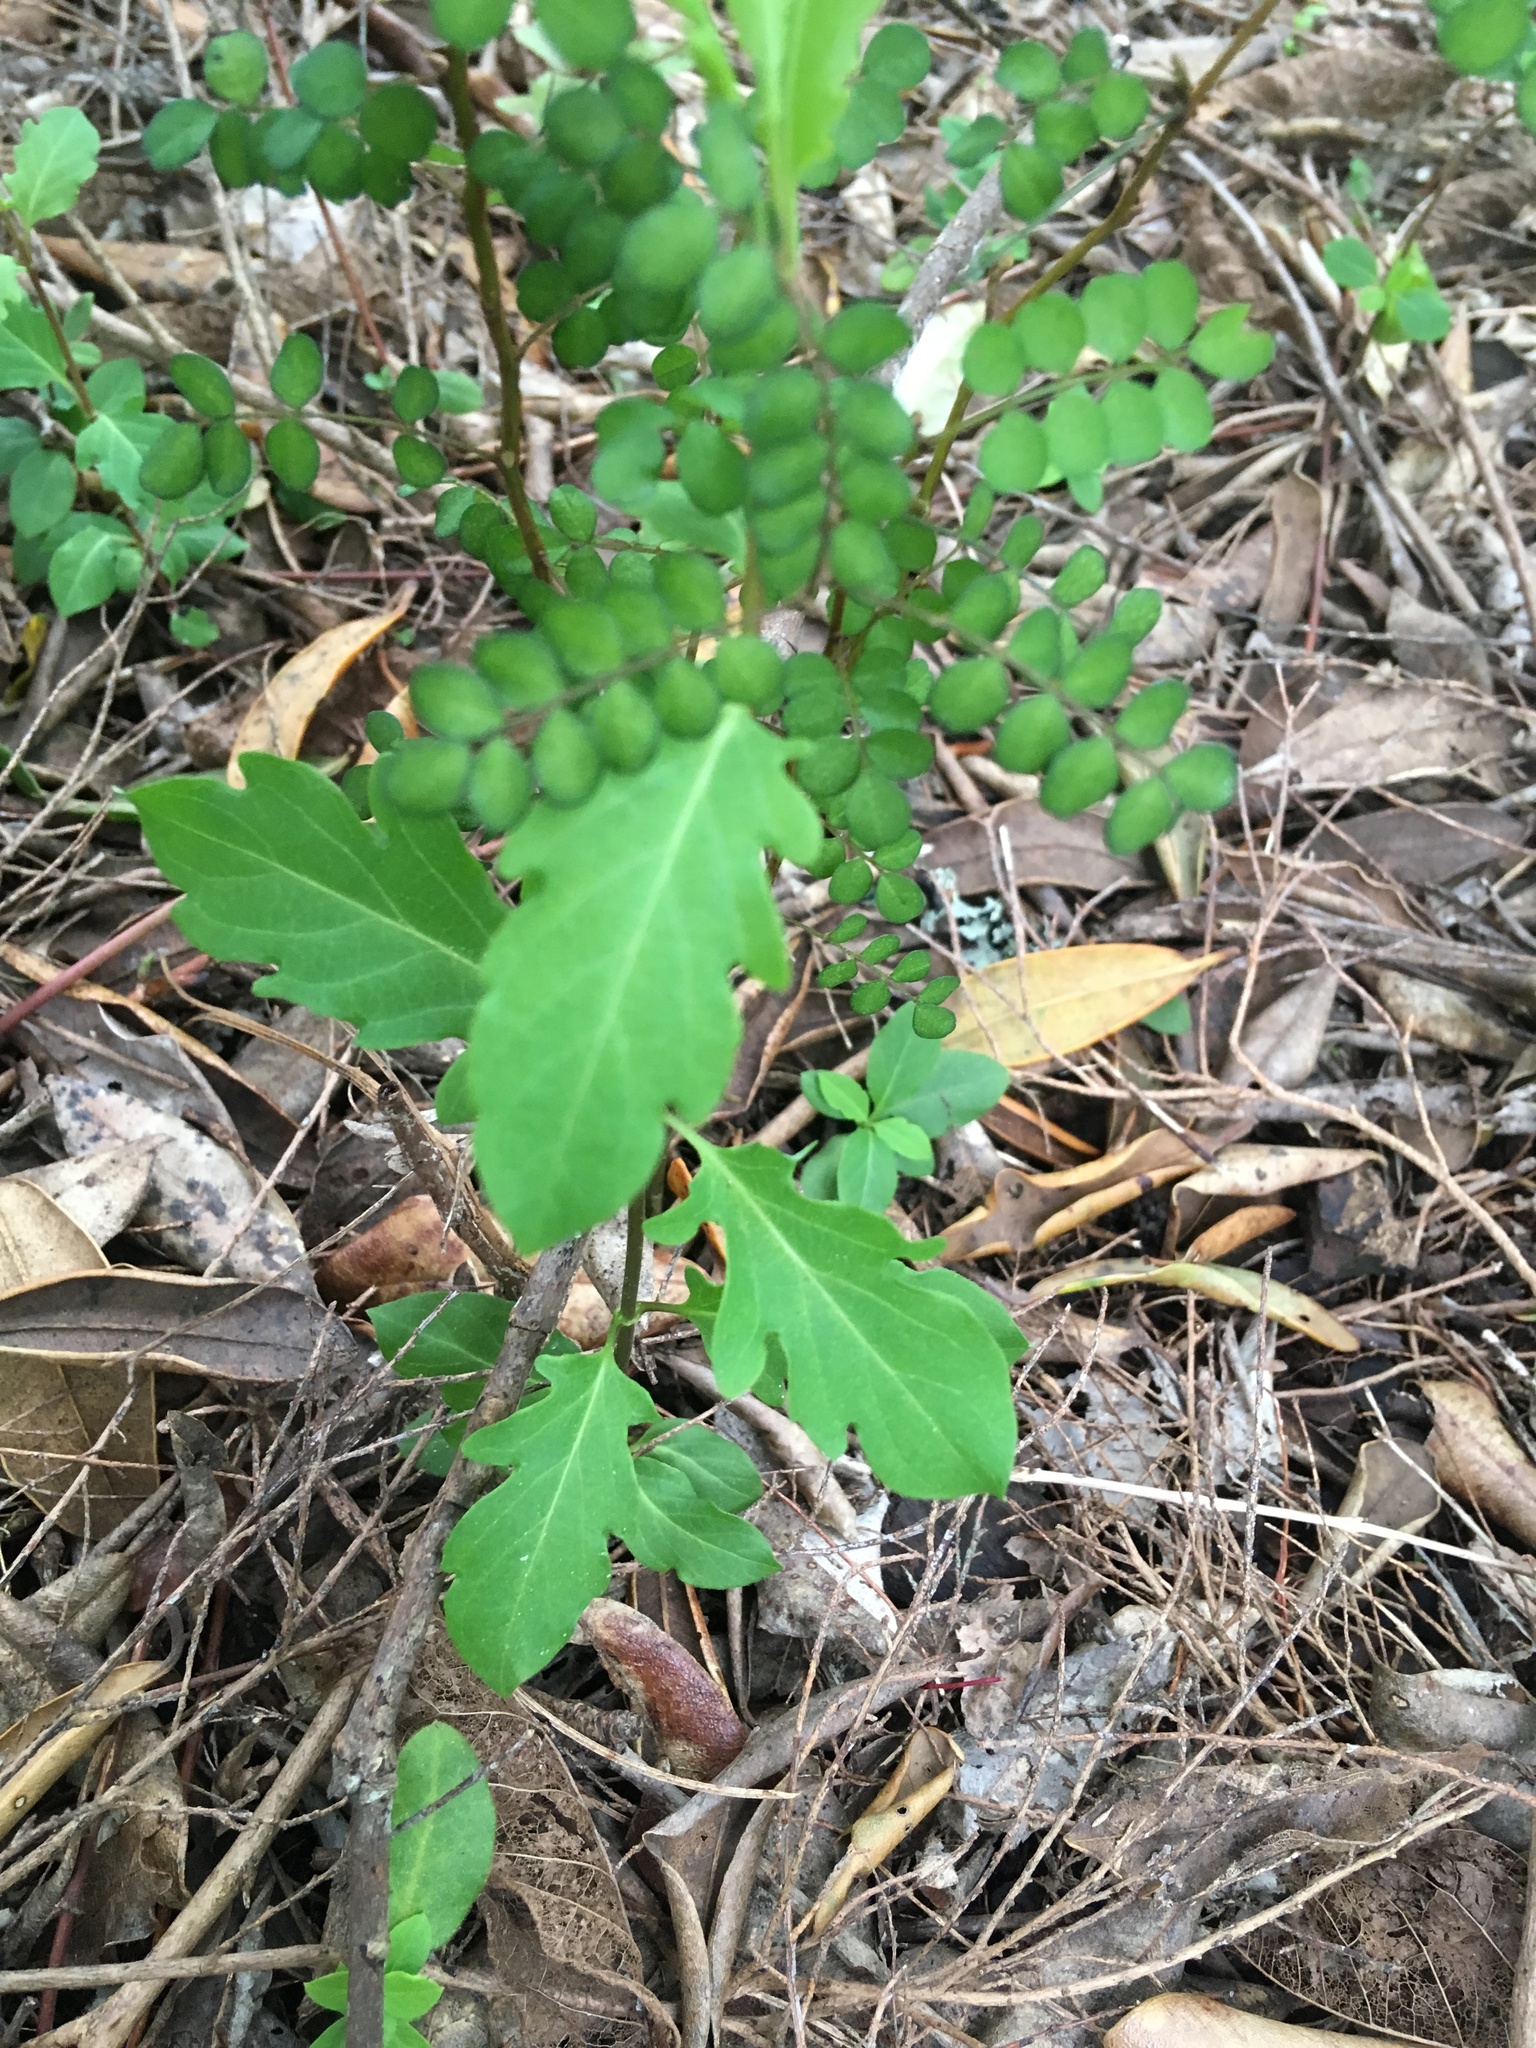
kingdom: Plantae
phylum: Tracheophyta
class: Magnoliopsida
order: Dipsacales
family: Caprifoliaceae
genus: Lonicera
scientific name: Lonicera japonica
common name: Japanese honeysuckle
